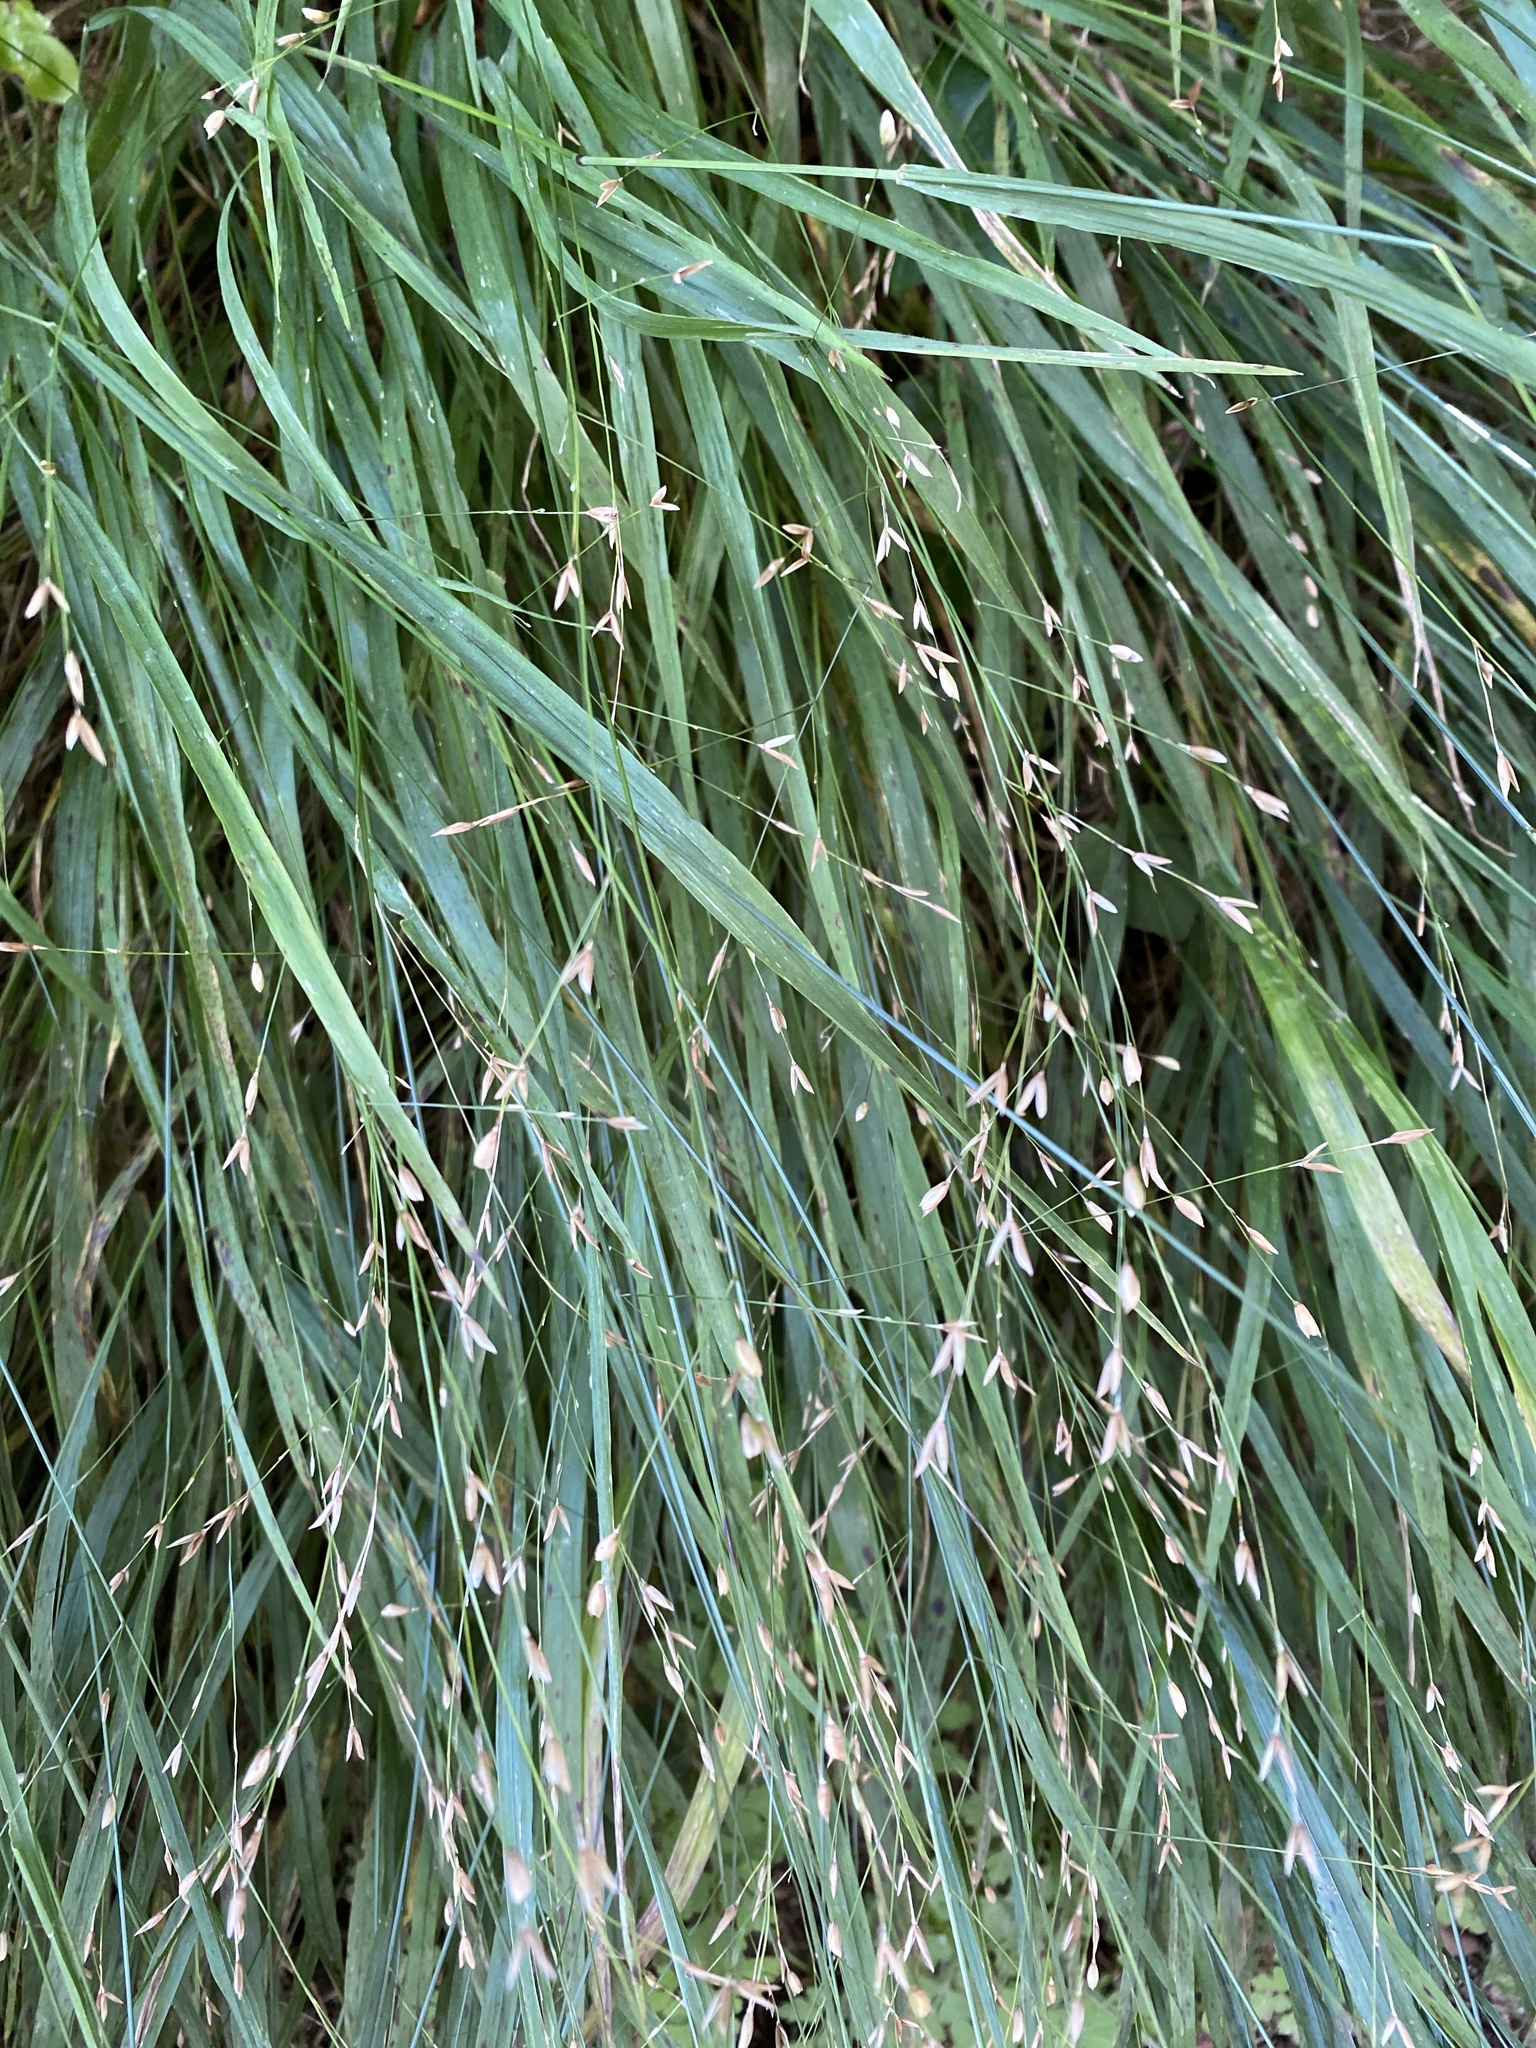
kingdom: Plantae
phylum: Tracheophyta
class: Liliopsida
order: Poales
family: Poaceae
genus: Melica
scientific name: Melica uniflora
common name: Wood melick
